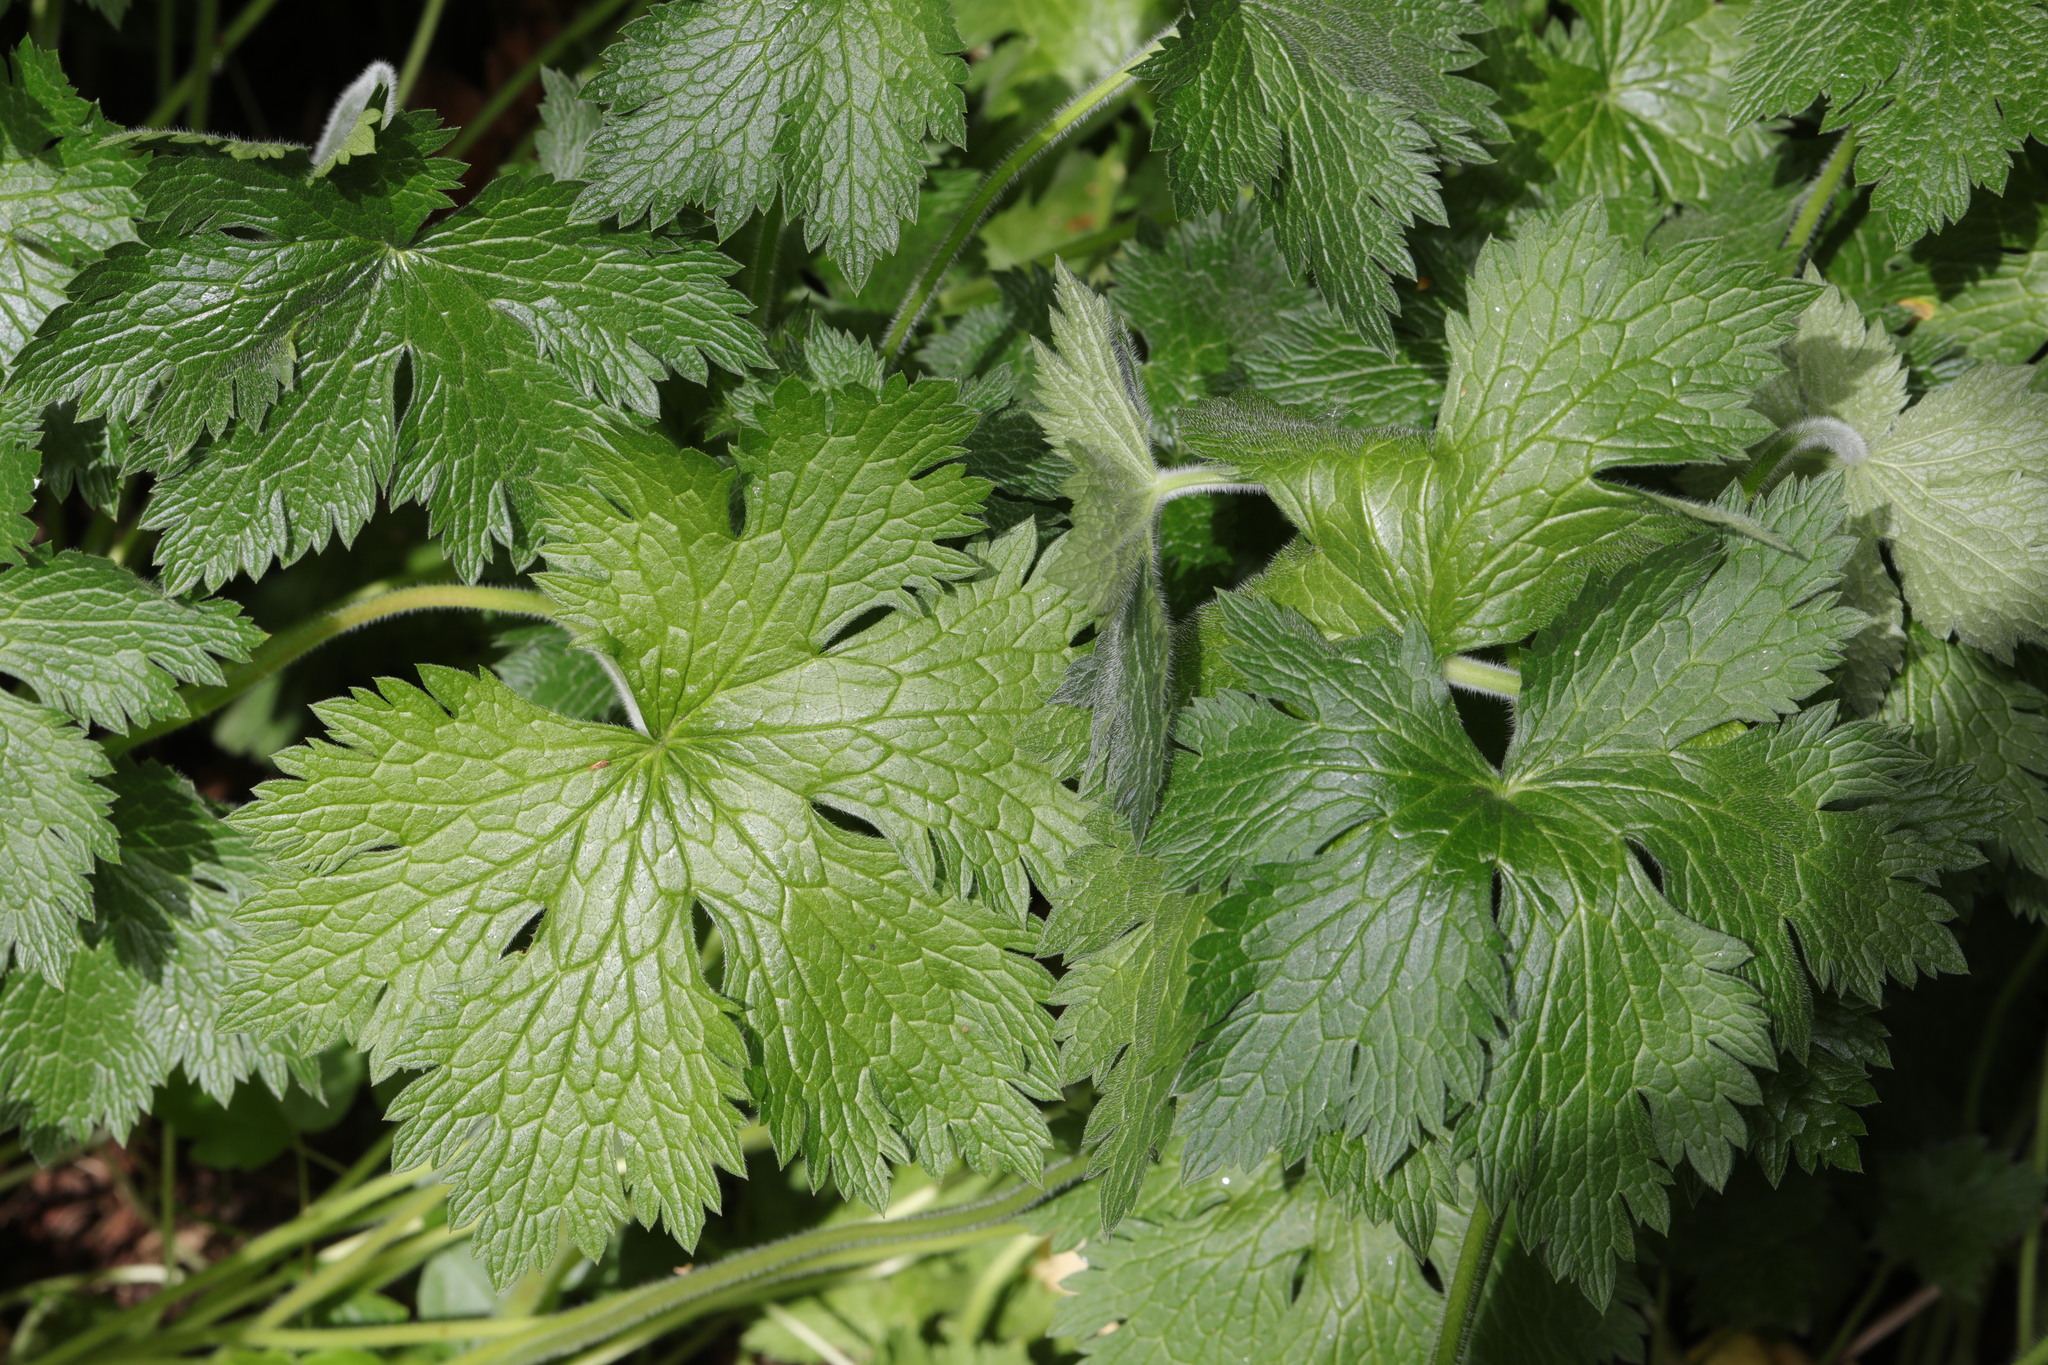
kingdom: Plantae
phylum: Tracheophyta
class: Magnoliopsida
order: Ranunculales
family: Ranunculaceae
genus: Ranunculus
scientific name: Ranunculus repens
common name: Creeping buttercup
